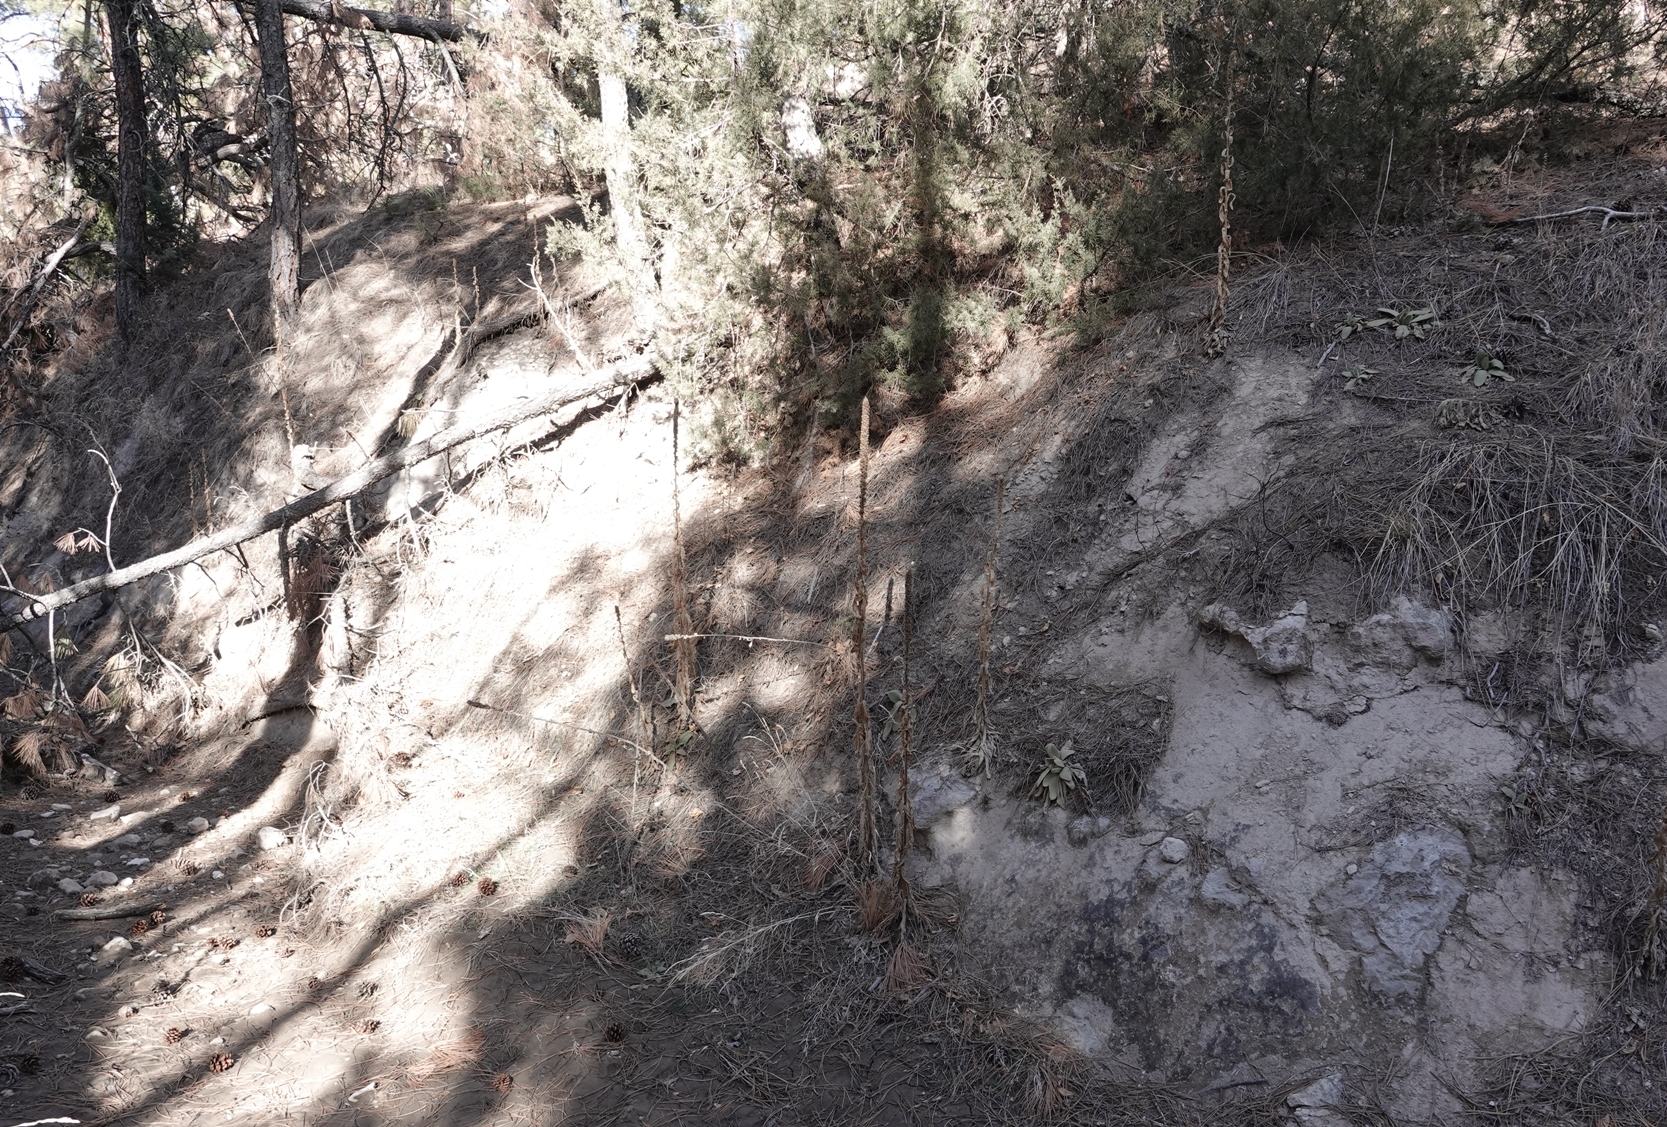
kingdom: Plantae
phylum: Tracheophyta
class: Magnoliopsida
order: Lamiales
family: Scrophulariaceae
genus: Verbascum
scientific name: Verbascum thapsus
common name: Common mullein
